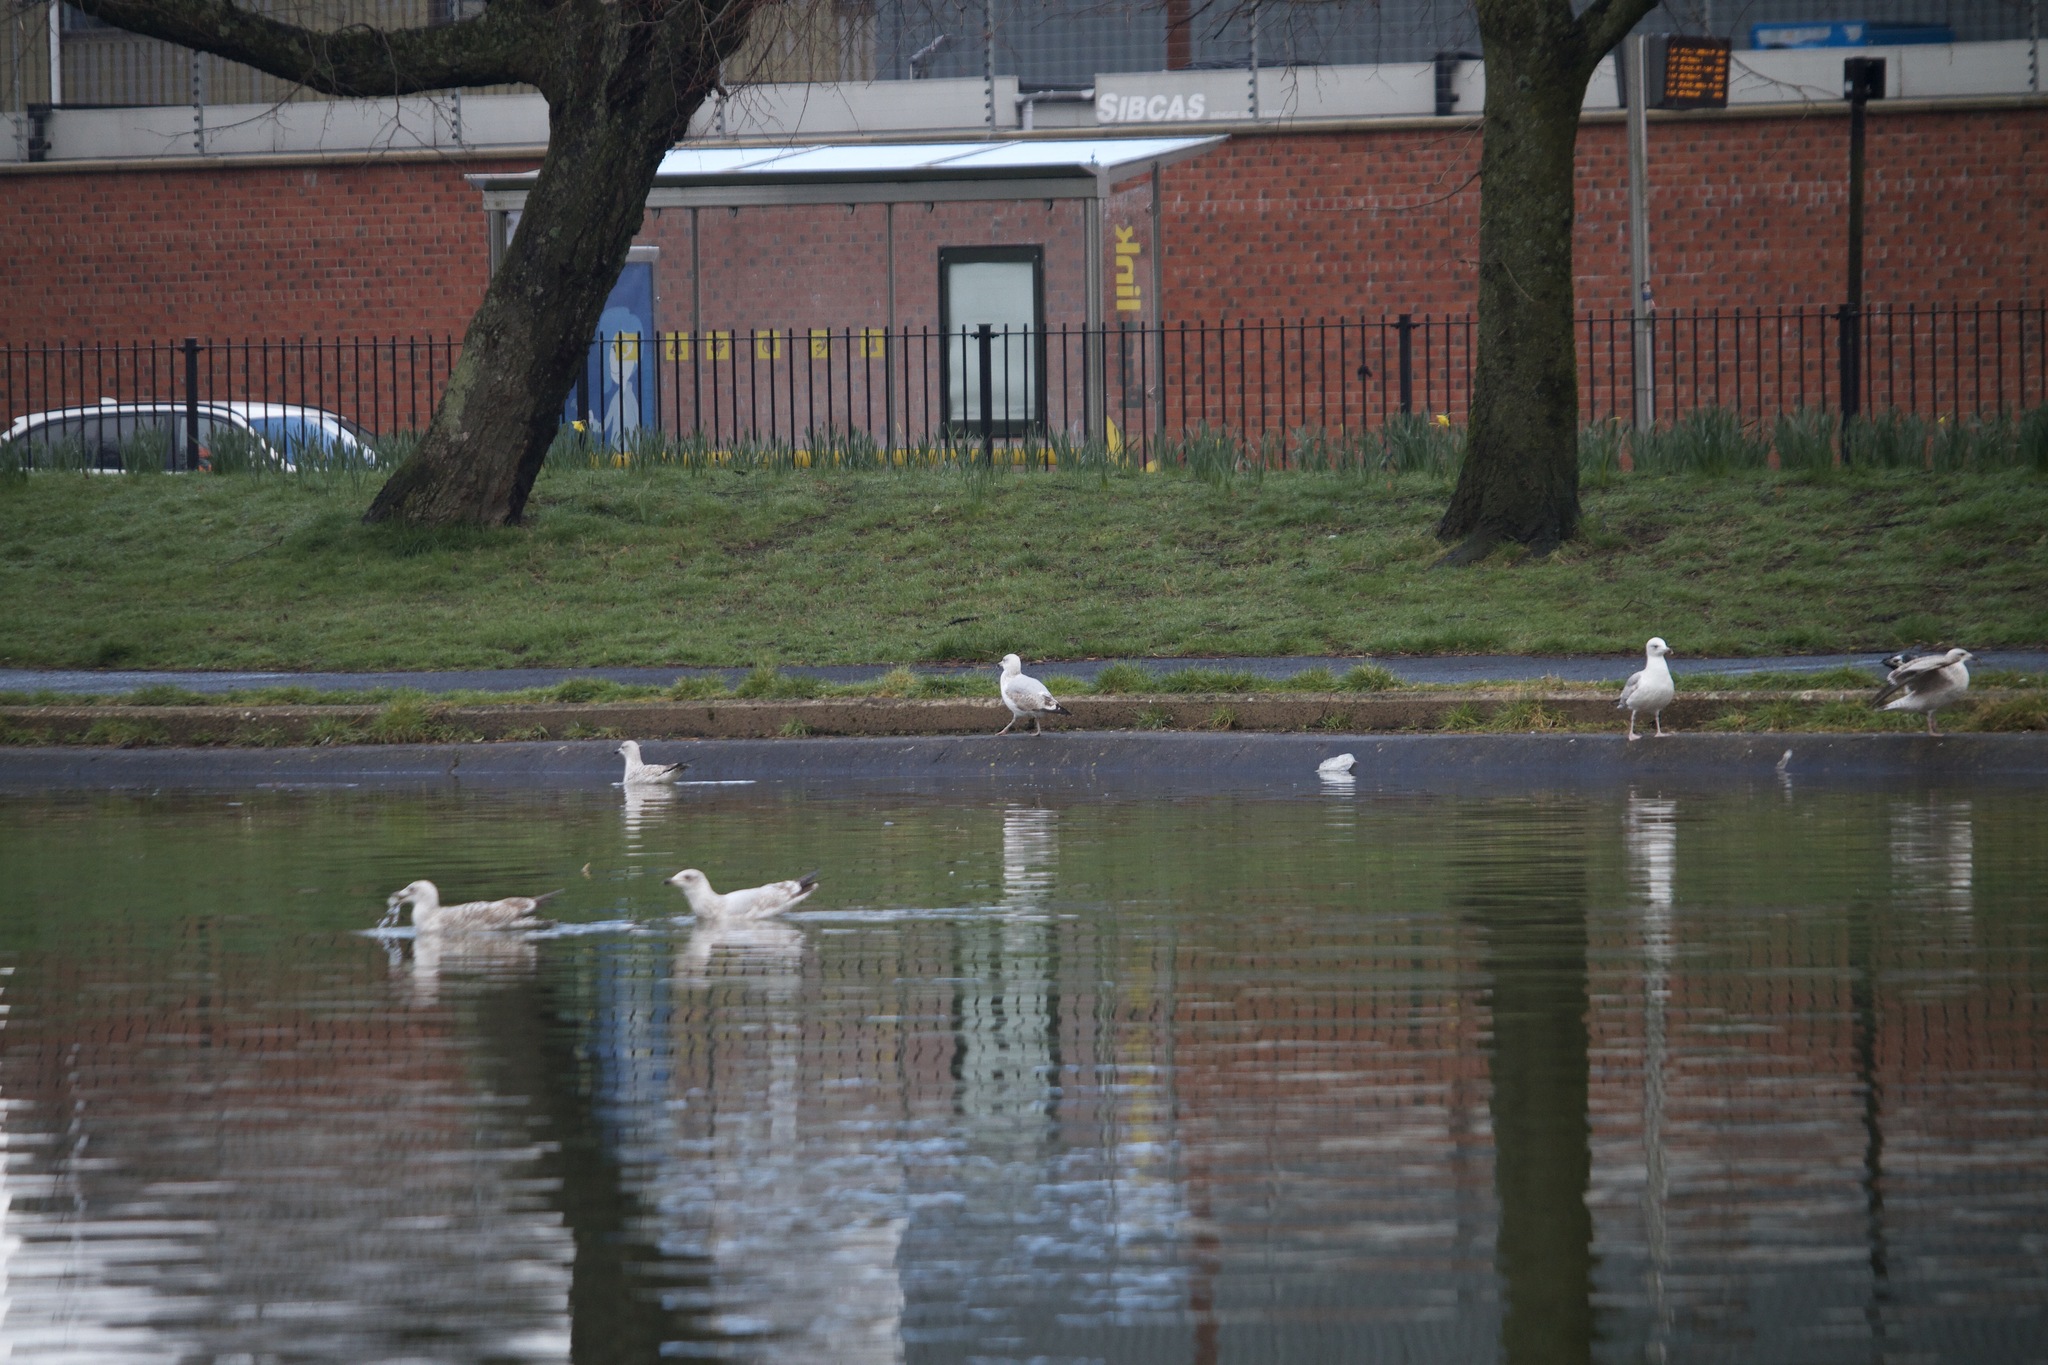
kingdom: Animalia
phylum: Chordata
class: Aves
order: Charadriiformes
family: Laridae
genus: Larus
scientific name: Larus argentatus
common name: Herring gull
